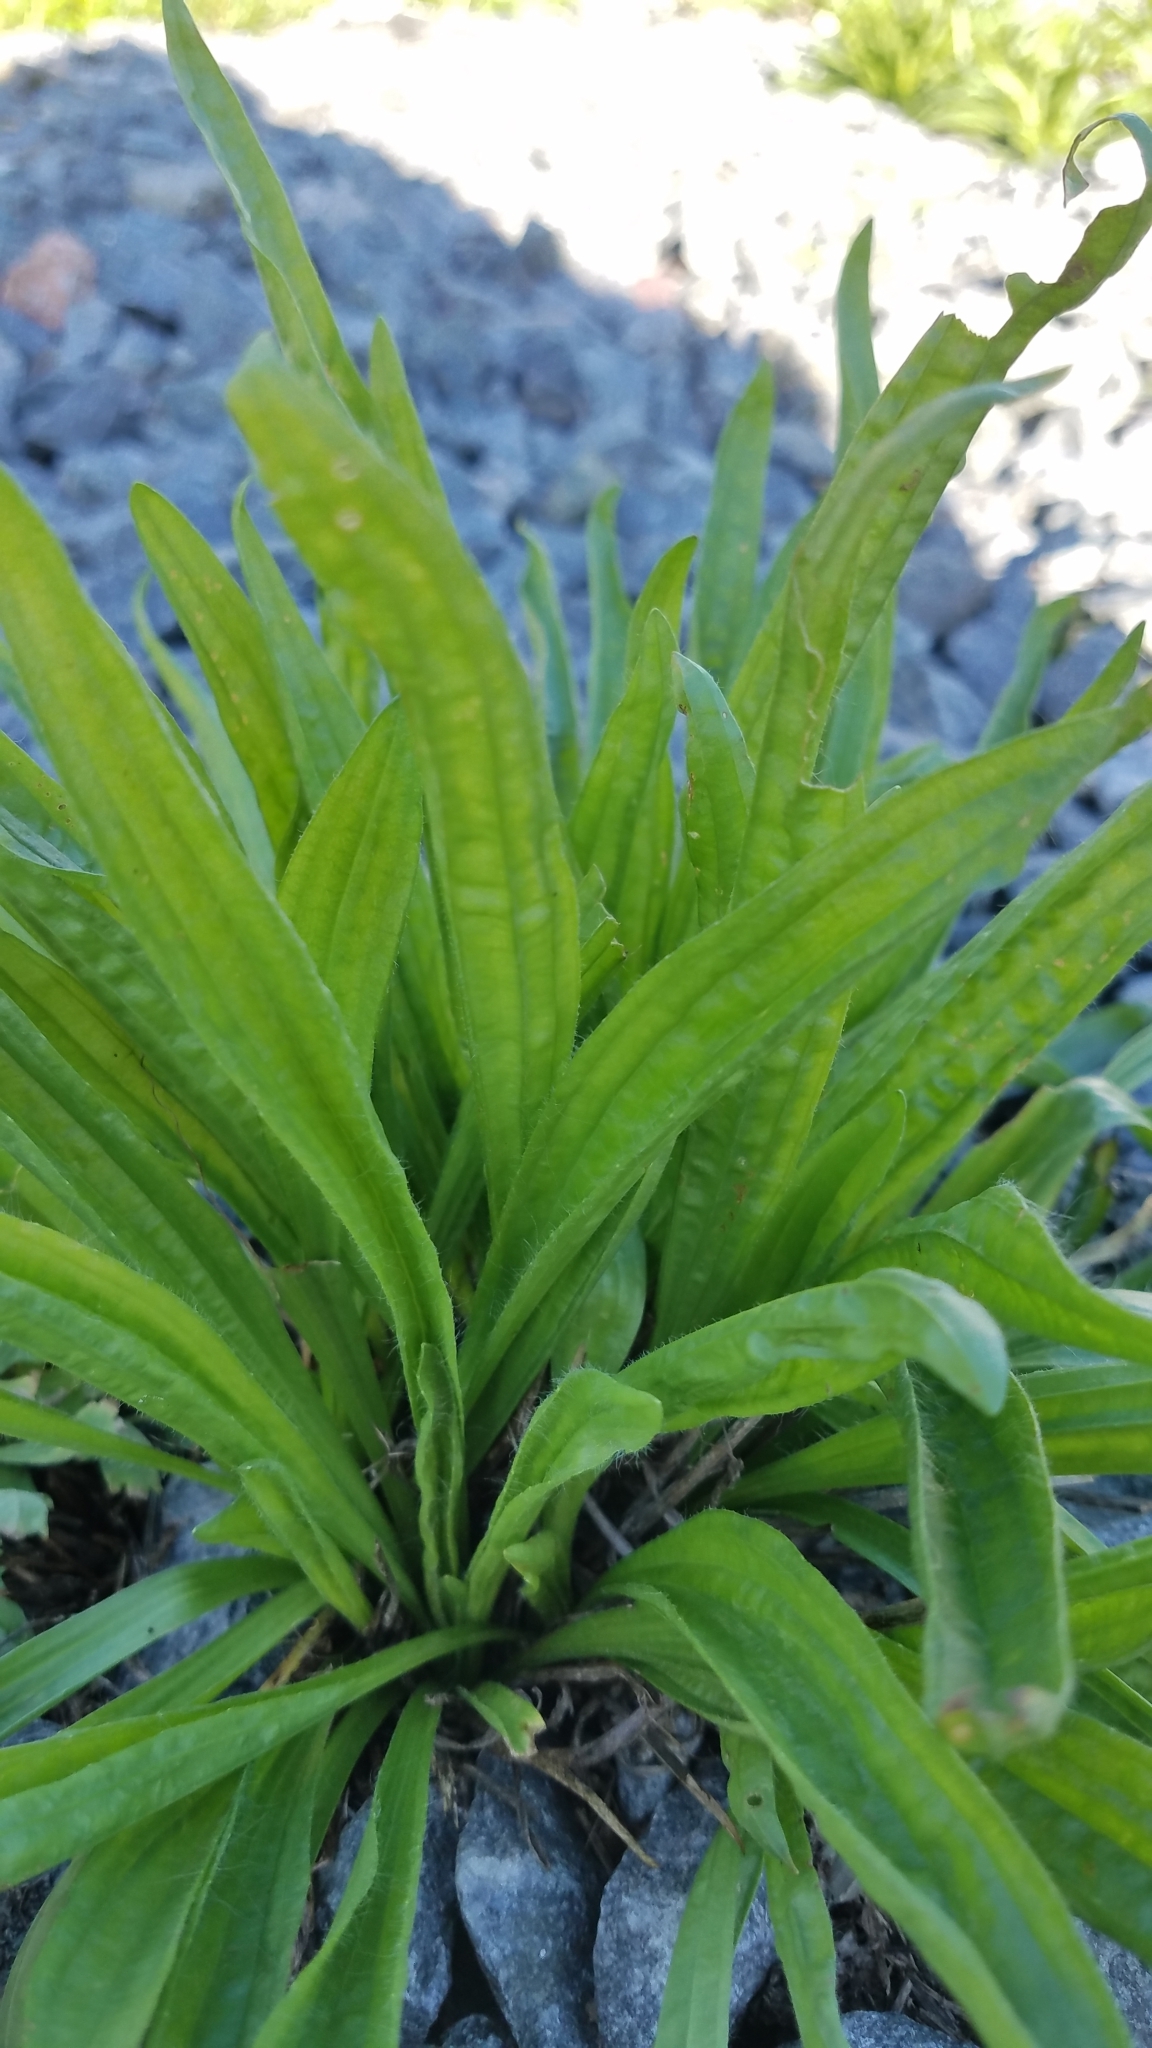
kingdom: Plantae
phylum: Tracheophyta
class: Magnoliopsida
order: Lamiales
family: Plantaginaceae
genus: Plantago
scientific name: Plantago lanceolata
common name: Ribwort plantain
